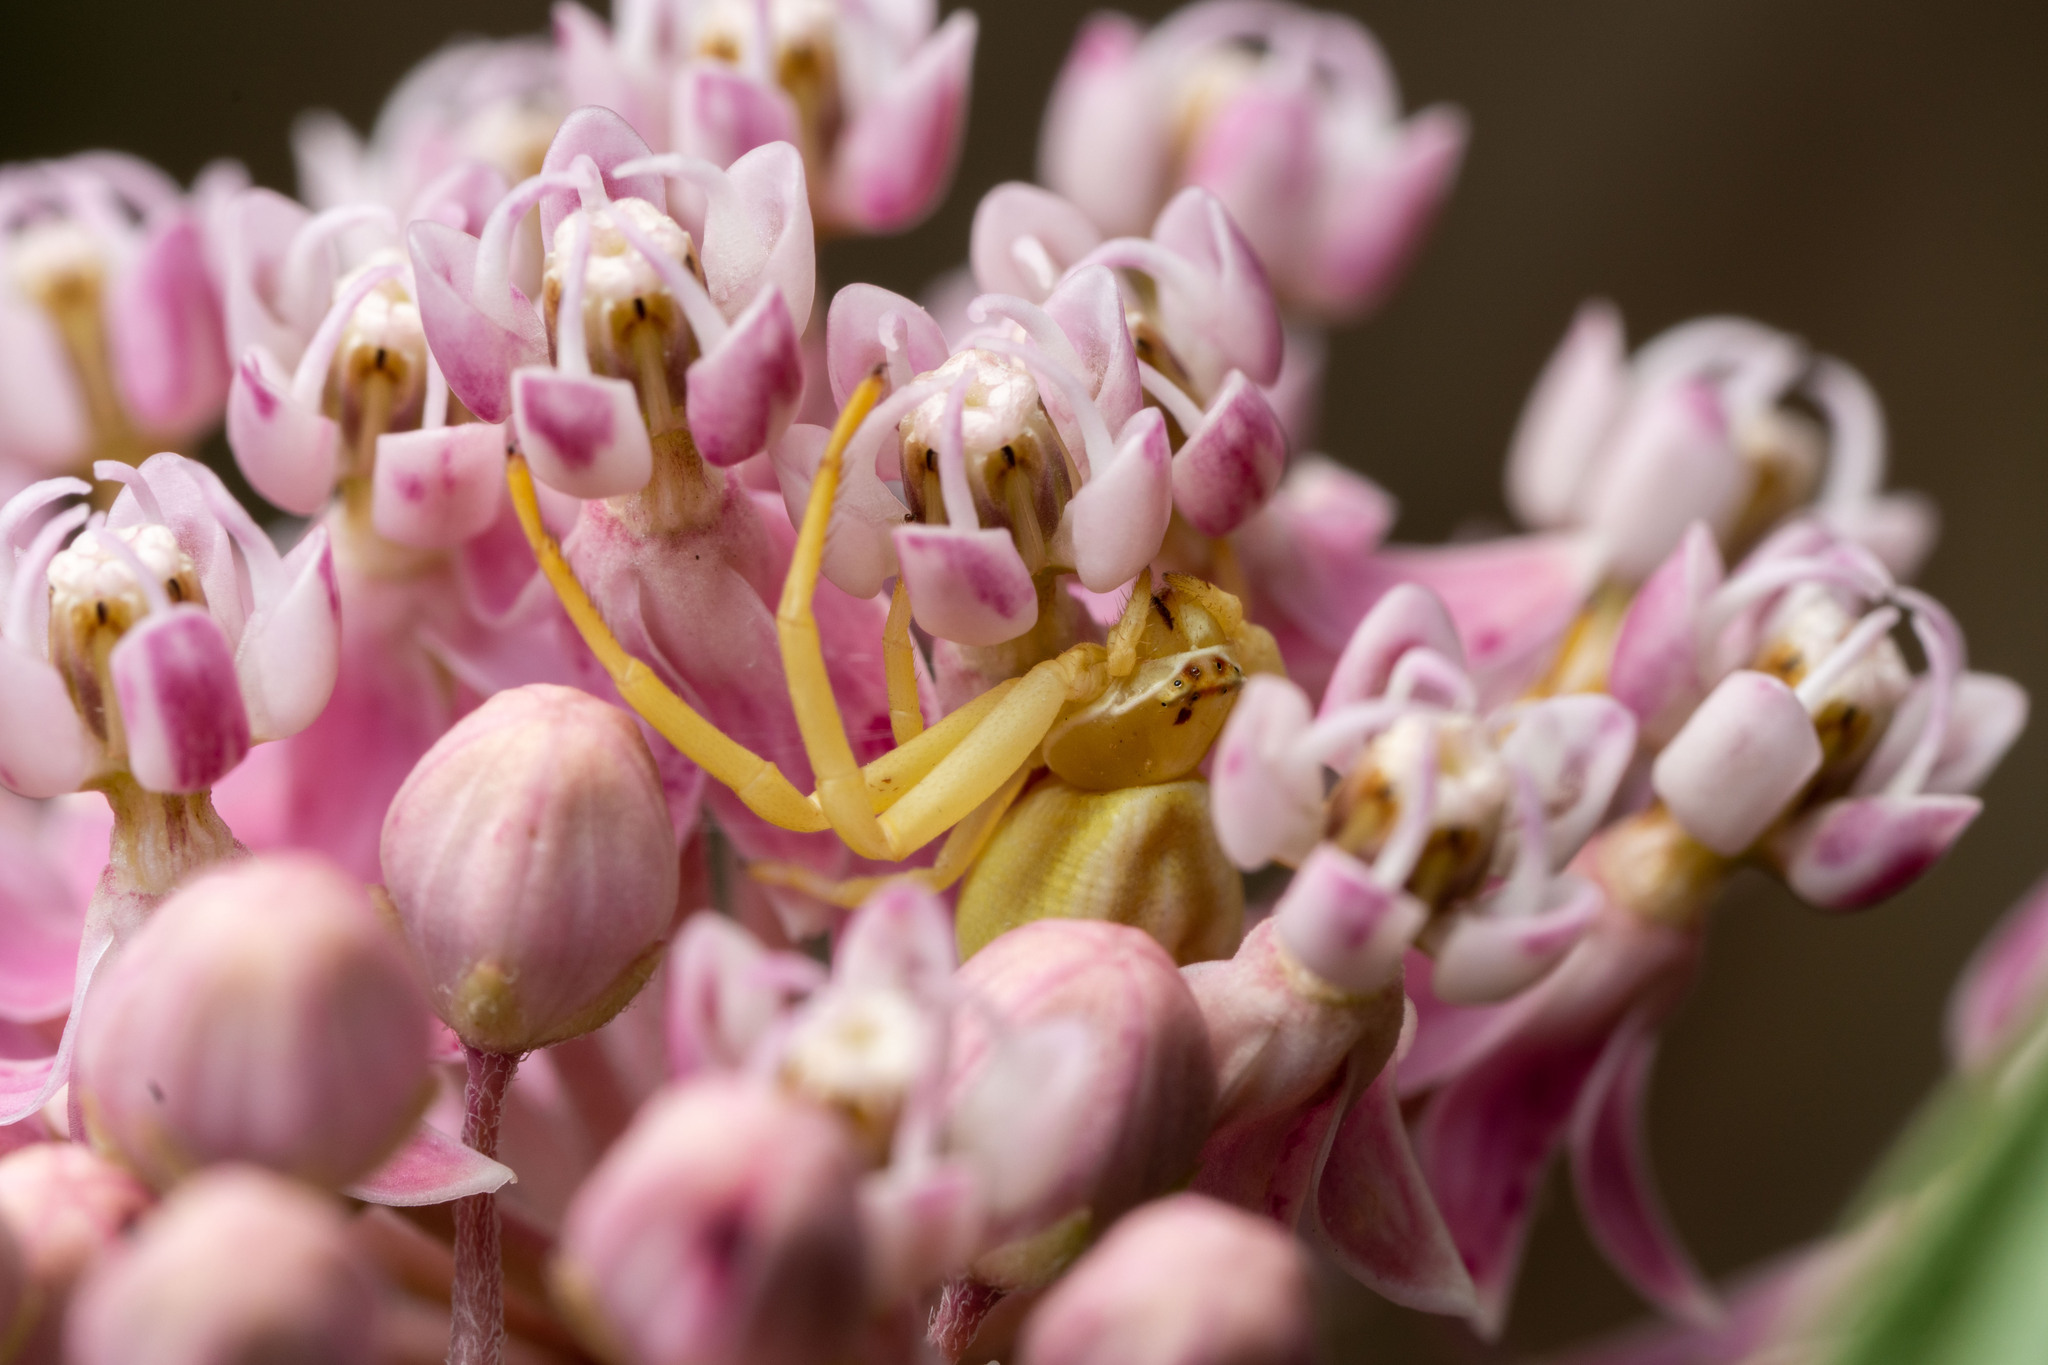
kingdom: Animalia
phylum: Arthropoda
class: Arachnida
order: Araneae
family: Thomisidae
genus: Misumenoides
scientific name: Misumenoides formosipes
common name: White-banded crab spider
